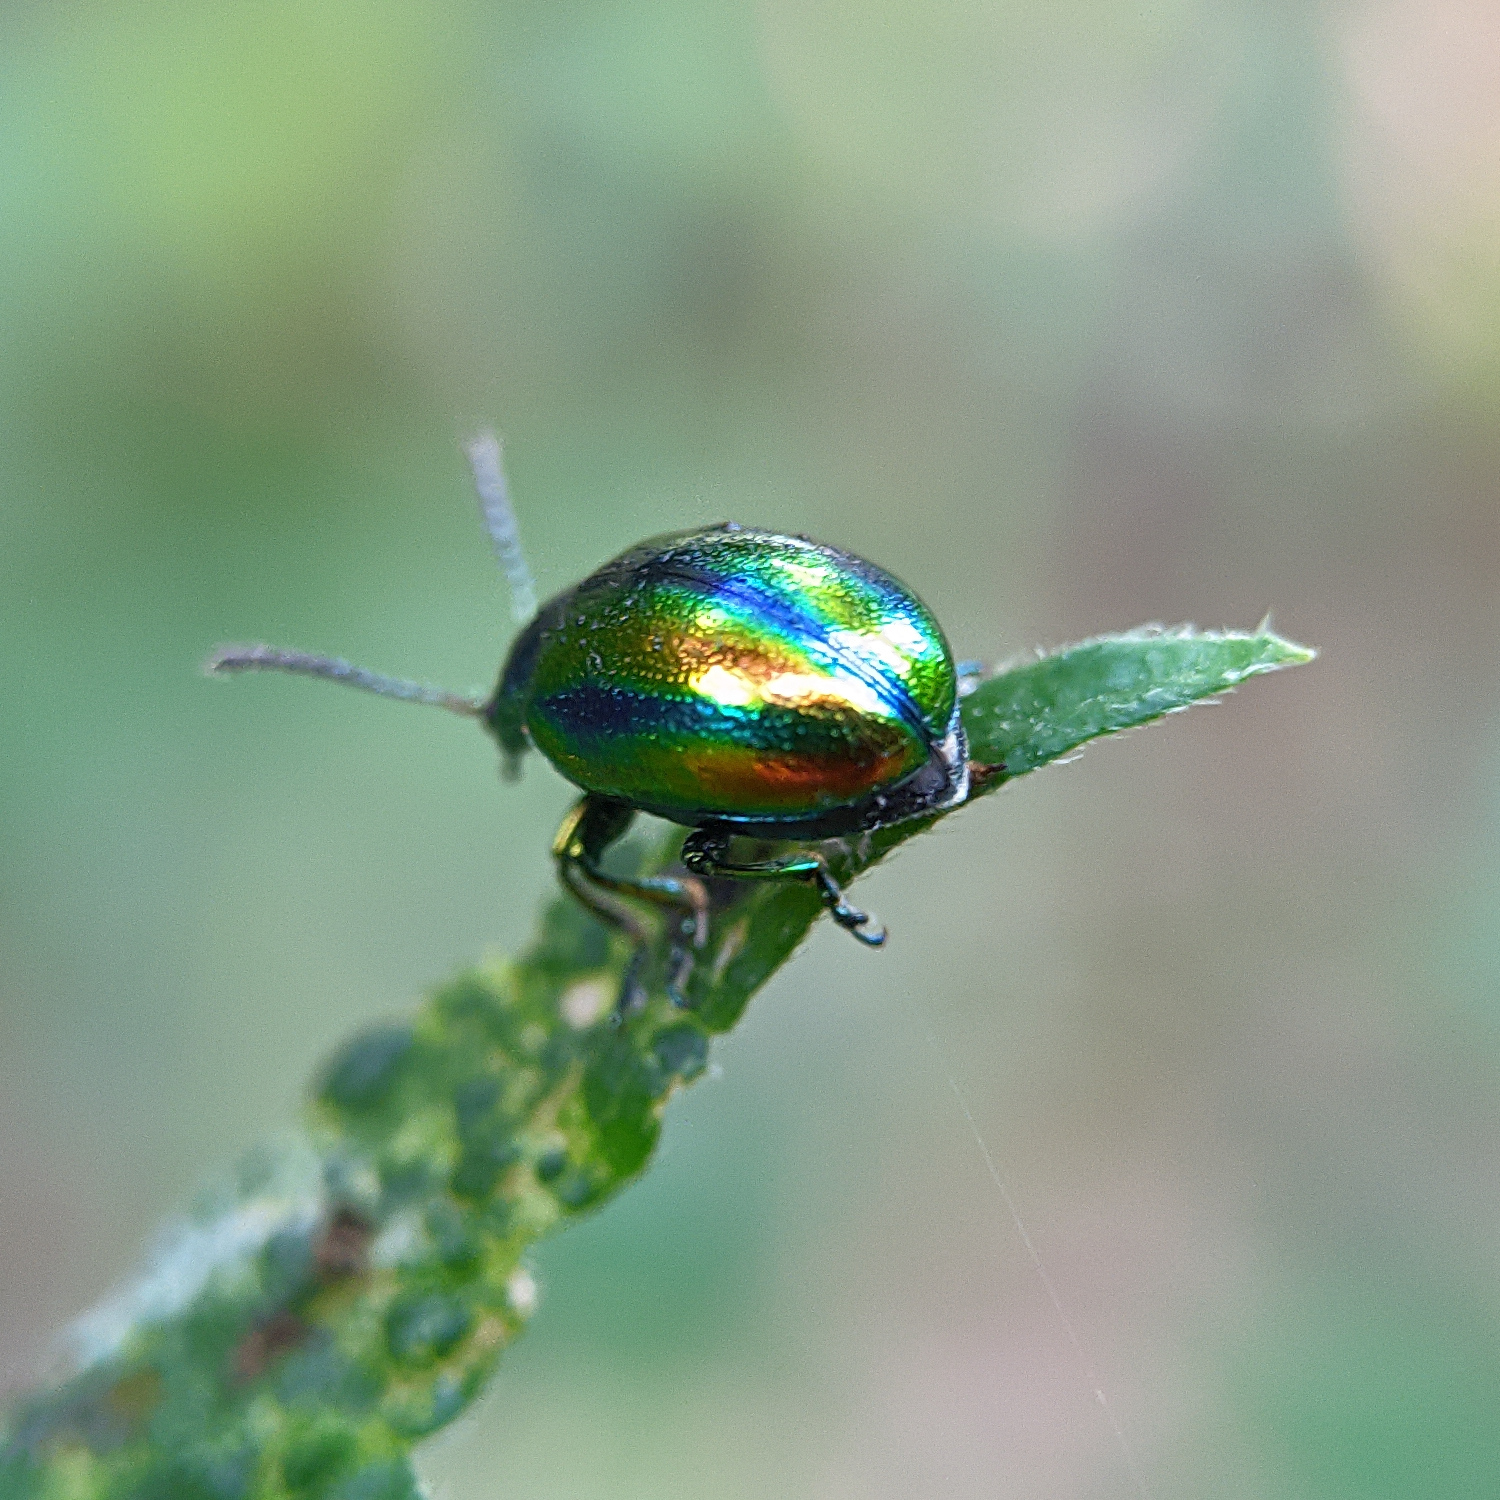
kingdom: Animalia
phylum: Arthropoda
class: Insecta
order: Coleoptera
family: Chrysomelidae
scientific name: Chrysomelidae
